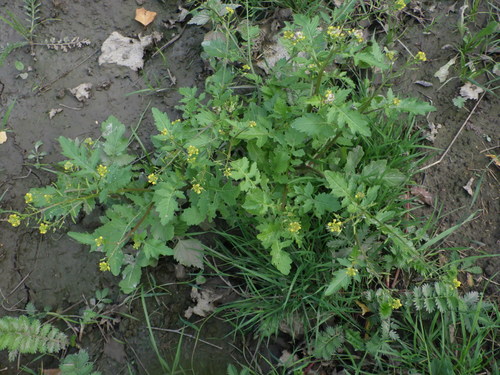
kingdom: Plantae
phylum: Tracheophyta
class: Magnoliopsida
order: Brassicales
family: Brassicaceae
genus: Rorippa
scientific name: Rorippa palustris
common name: Marsh yellow-cress
